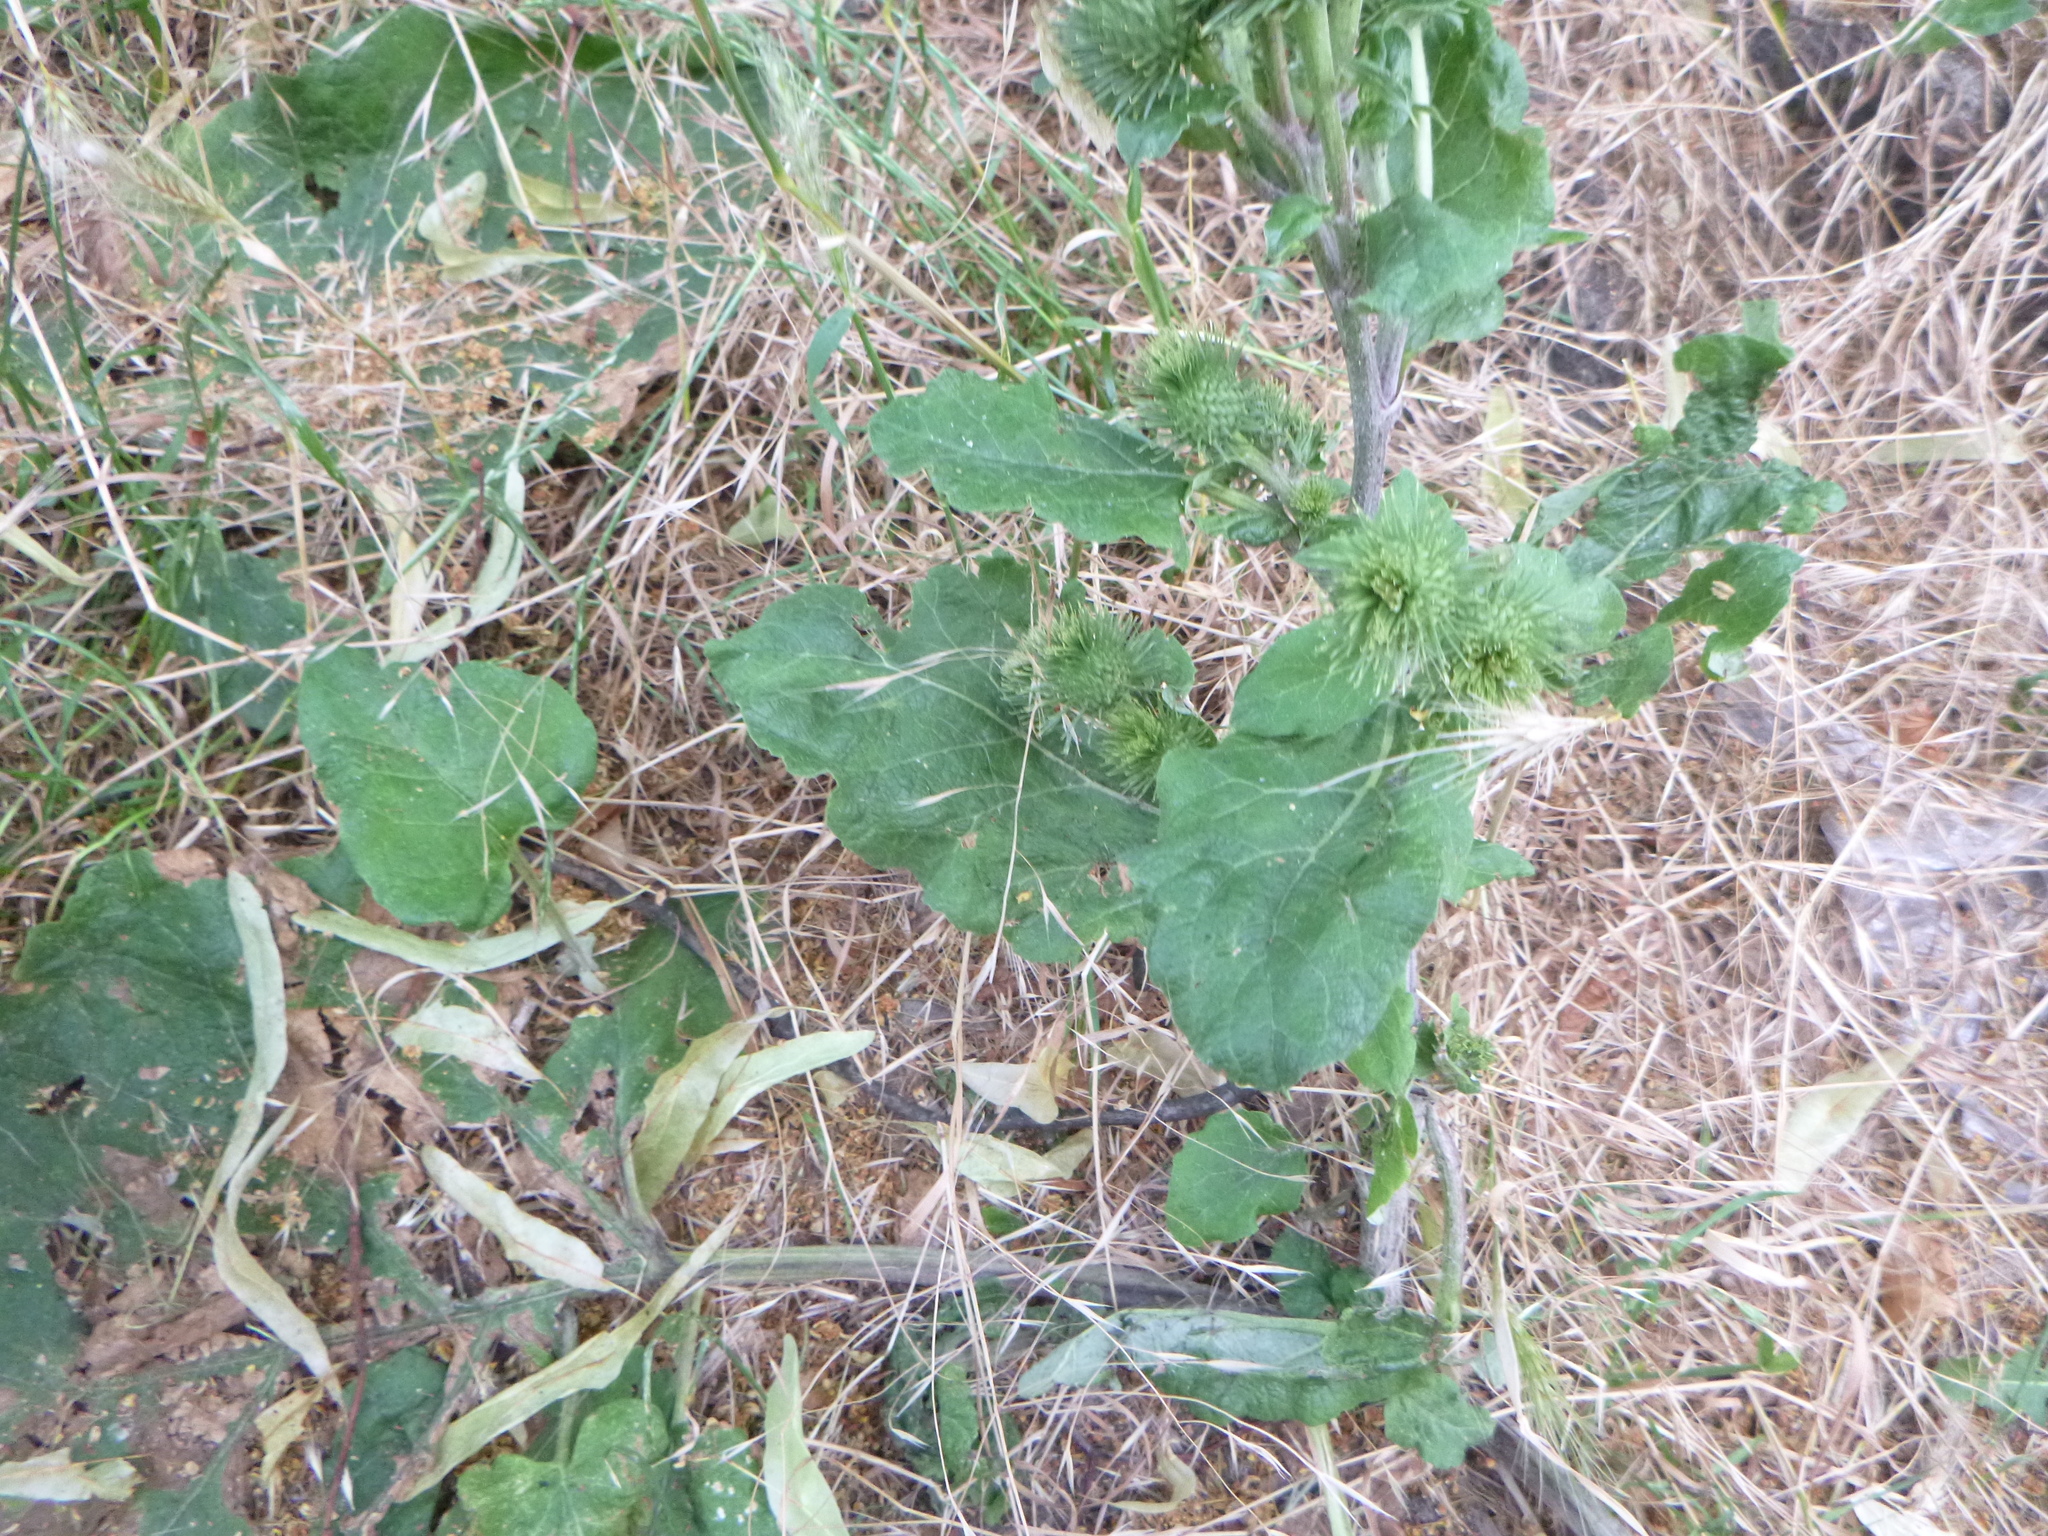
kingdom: Plantae
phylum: Tracheophyta
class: Magnoliopsida
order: Asterales
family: Asteraceae
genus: Arctium
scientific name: Arctium lappa
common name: Greater burdock
